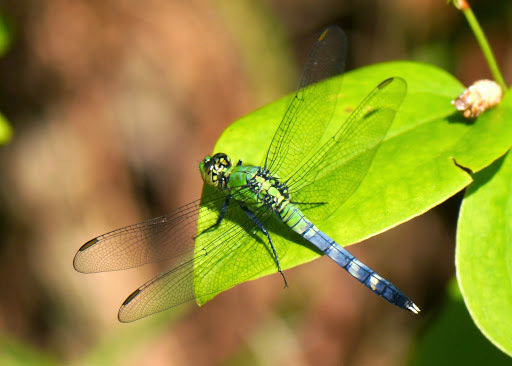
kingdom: Animalia
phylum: Arthropoda
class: Insecta
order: Odonata
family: Libellulidae
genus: Erythemis
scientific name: Erythemis simplicicollis
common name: Eastern pondhawk
